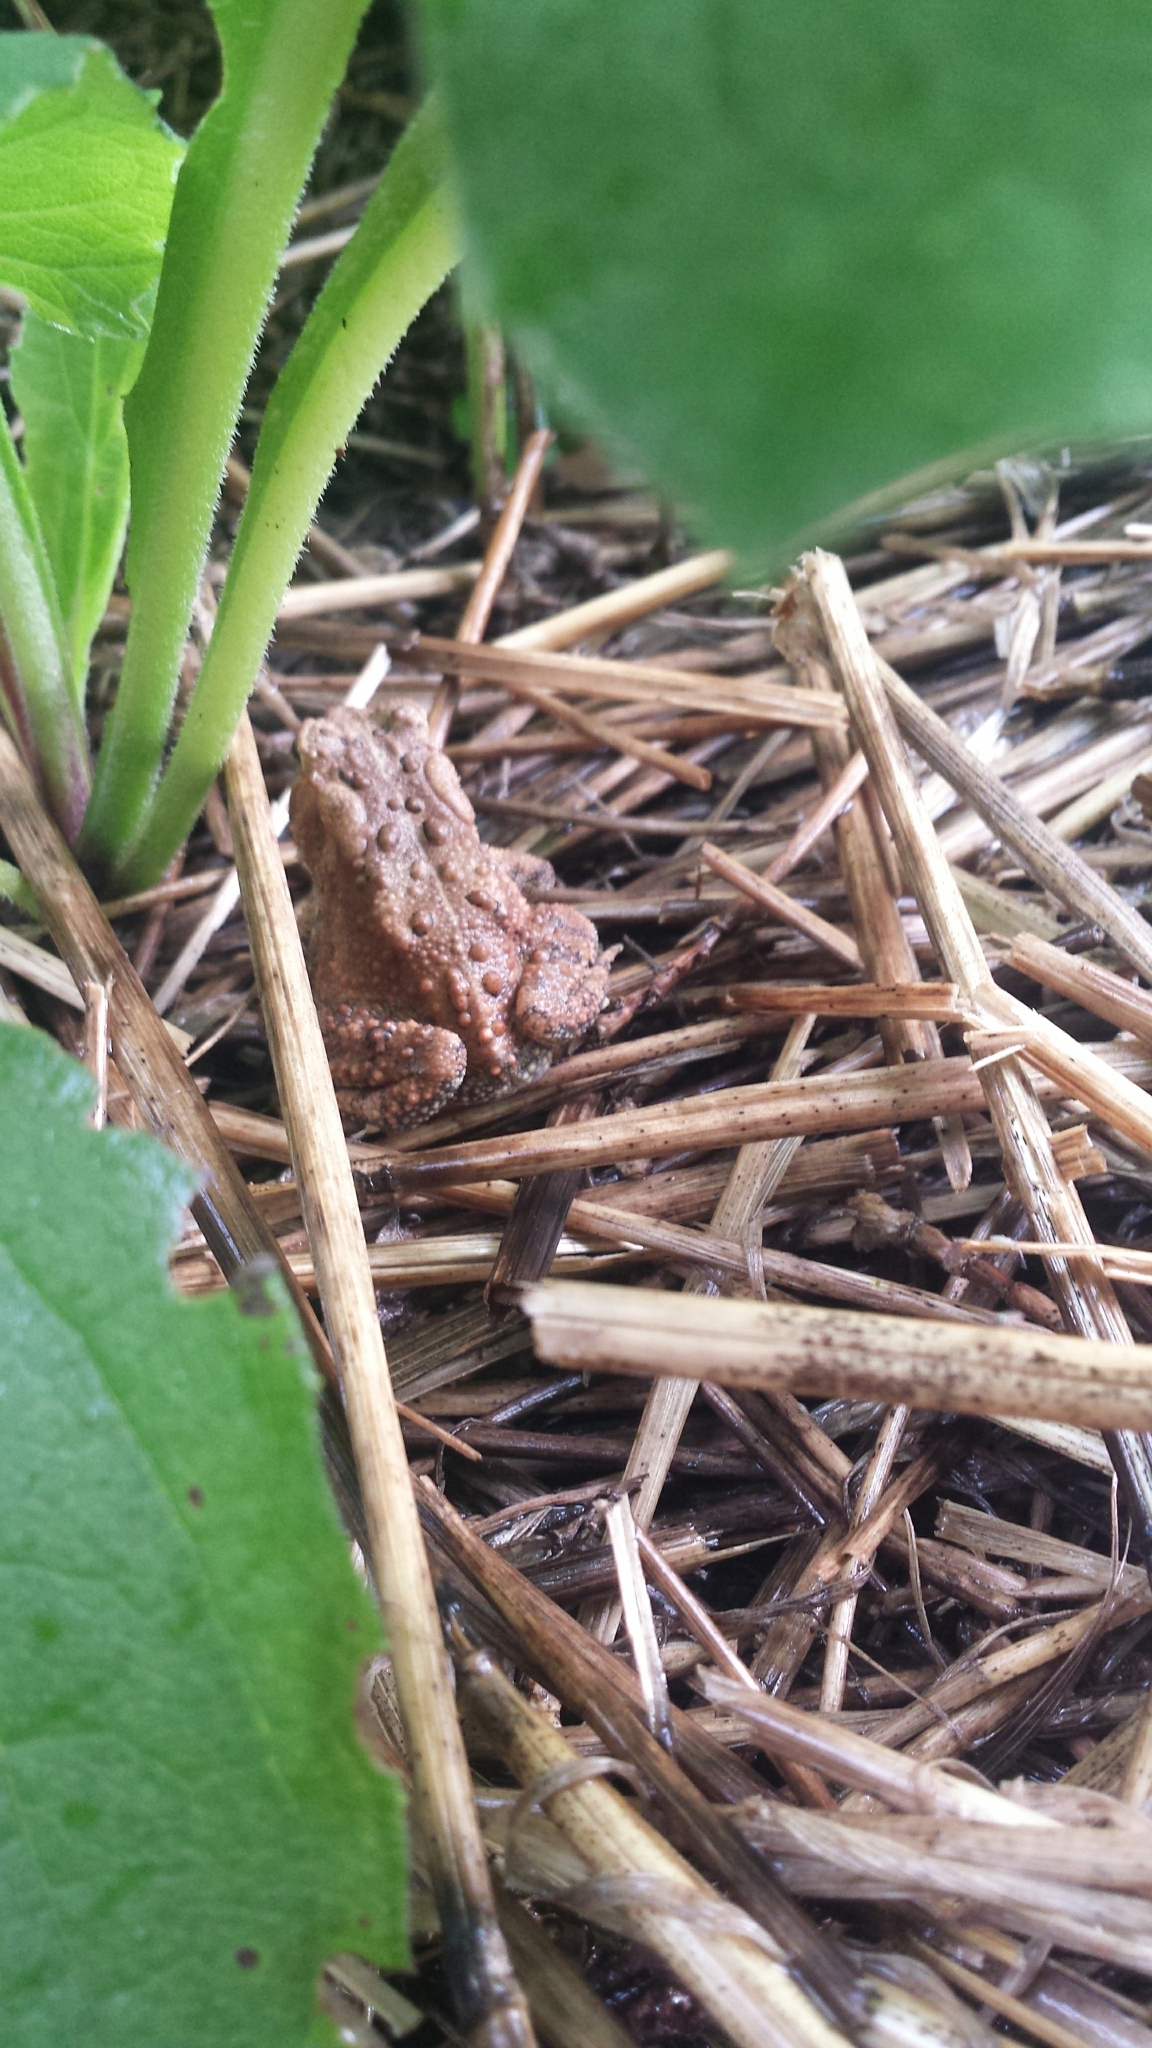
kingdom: Animalia
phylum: Chordata
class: Amphibia
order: Anura
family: Bufonidae
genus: Anaxyrus
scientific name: Anaxyrus americanus
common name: American toad
